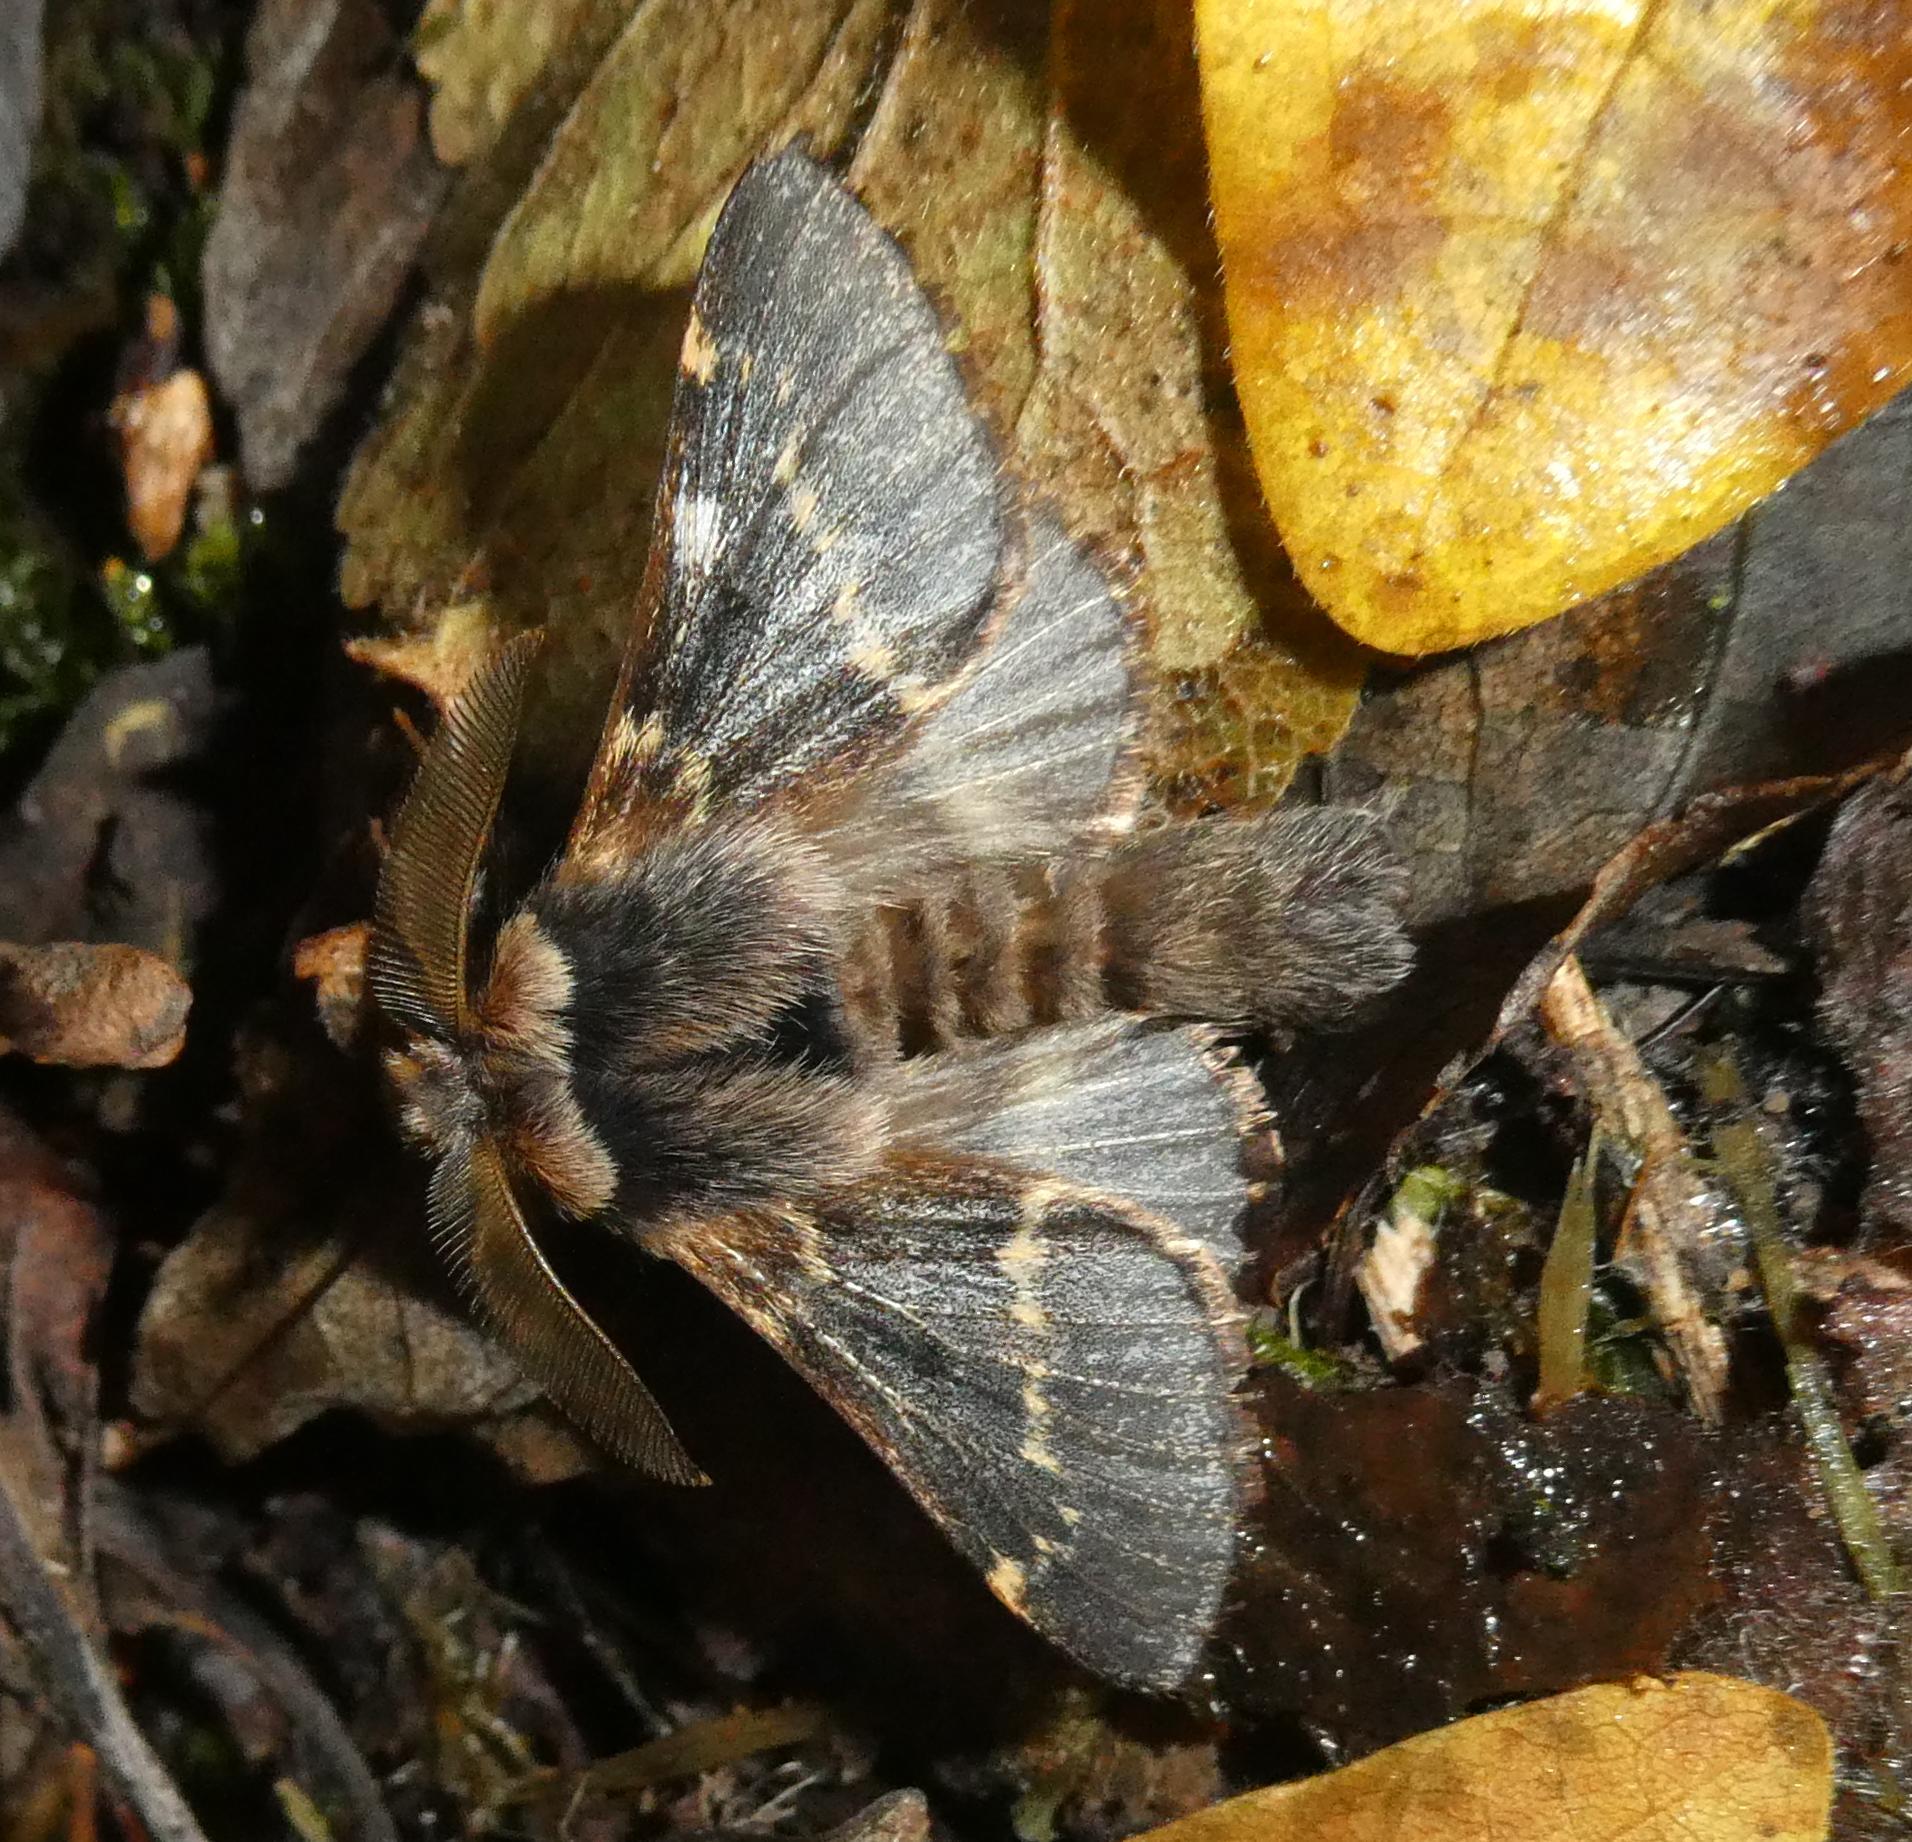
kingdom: Animalia
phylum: Arthropoda
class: Insecta
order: Lepidoptera
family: Lasiocampidae
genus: Poecilocampa
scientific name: Poecilocampa populi
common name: December moth
